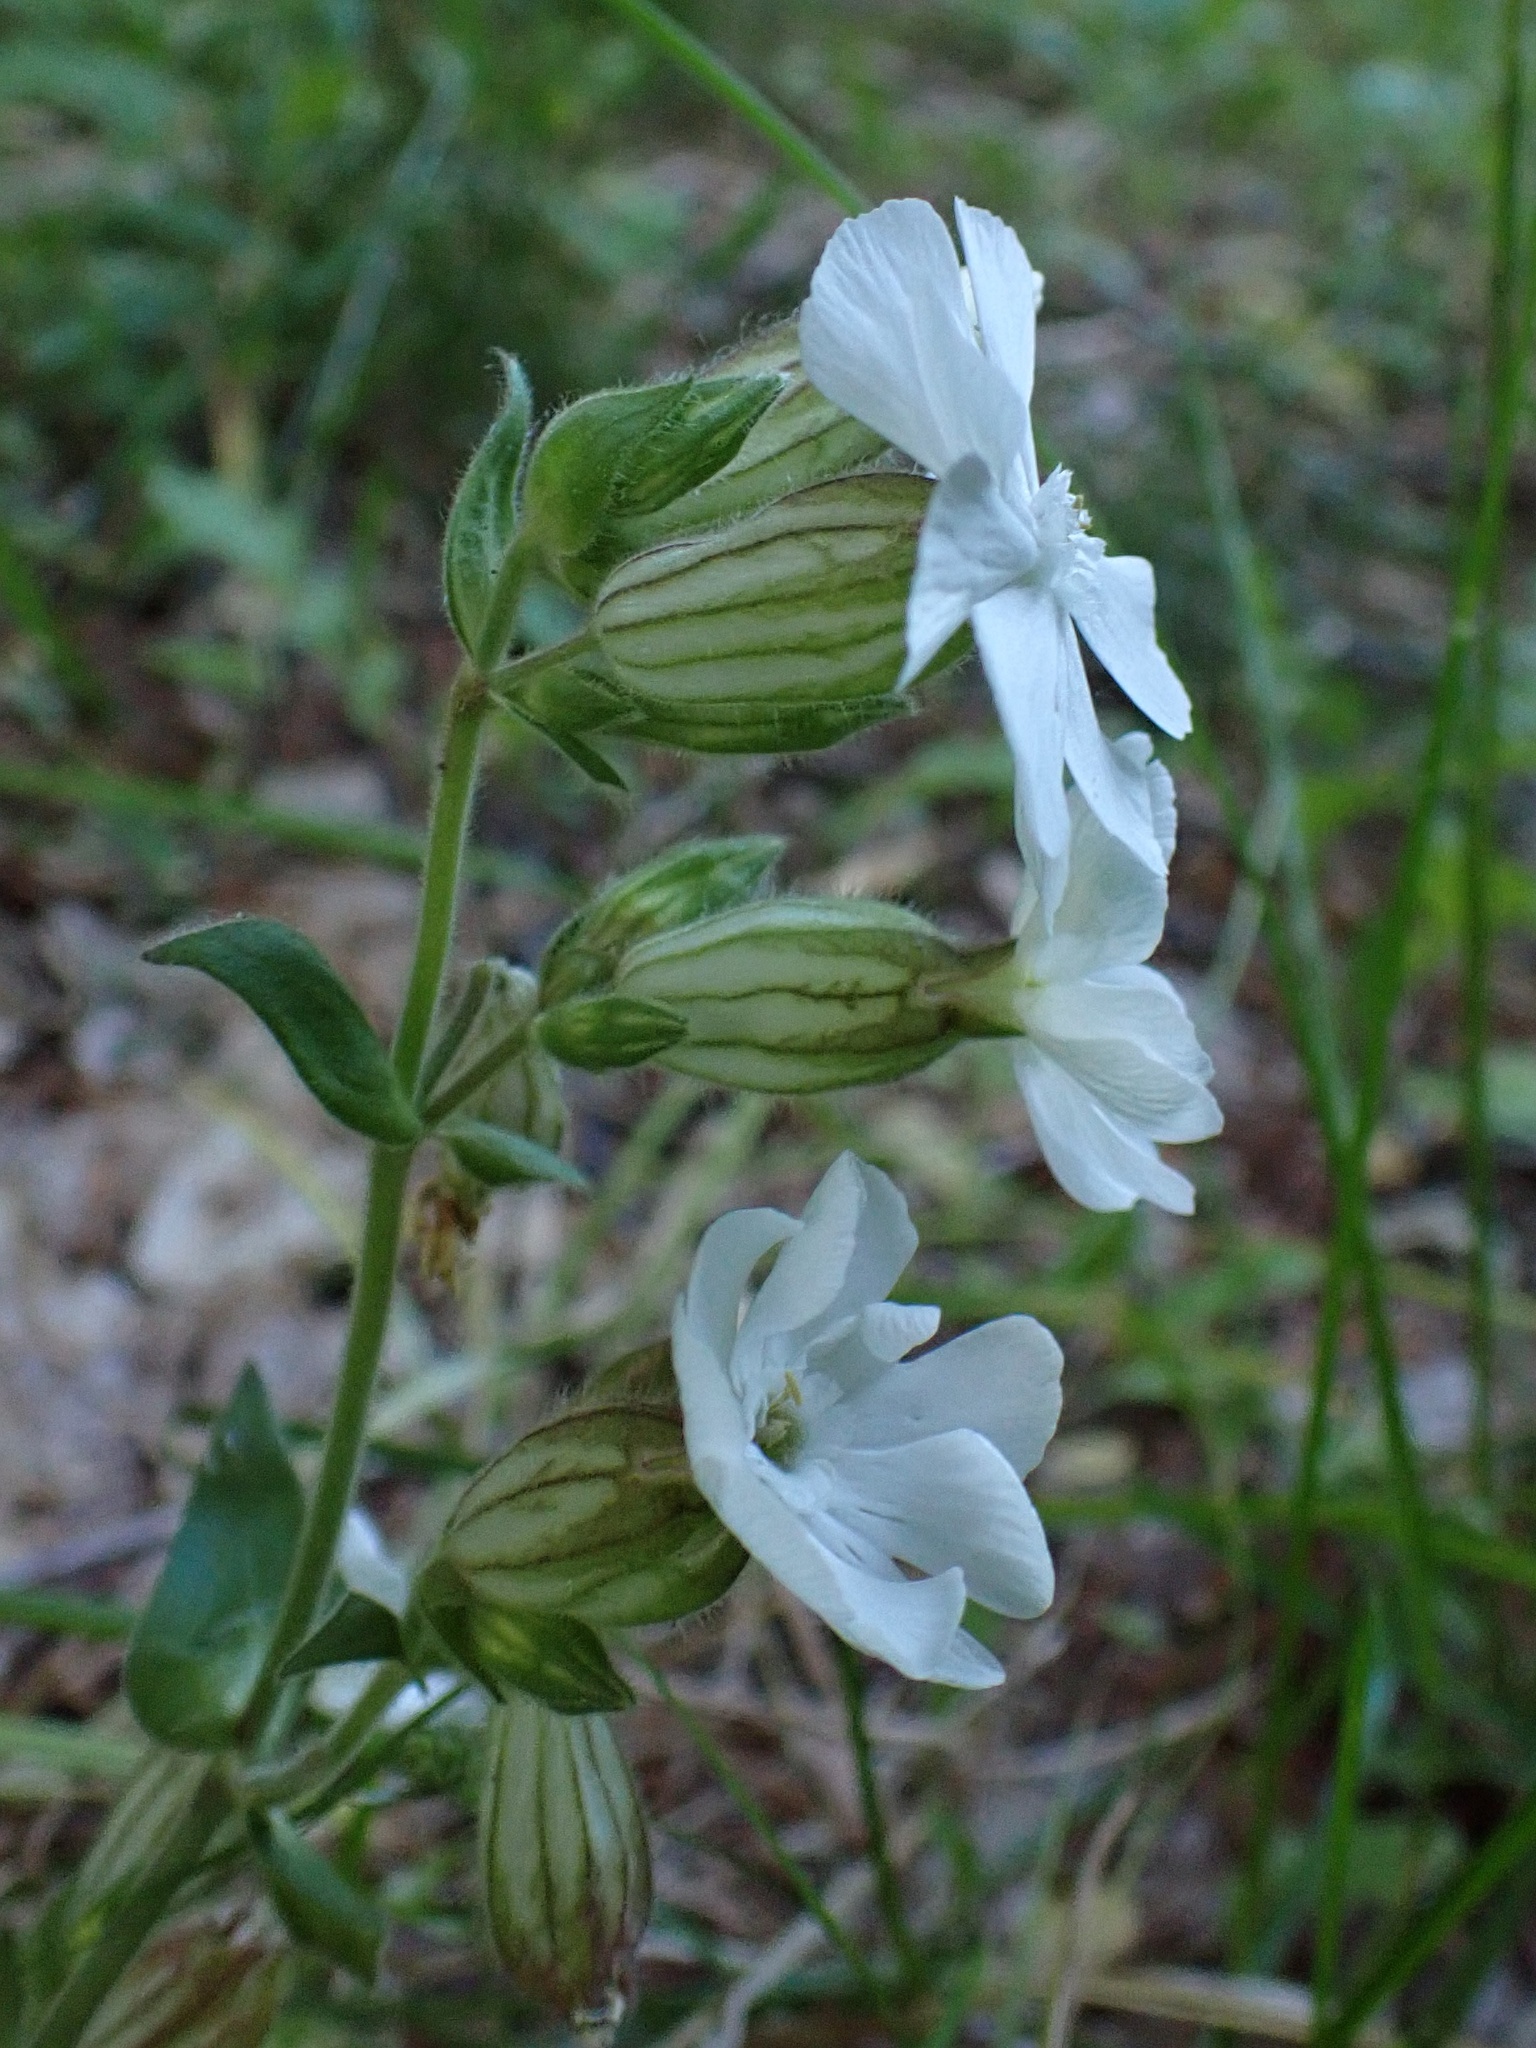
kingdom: Plantae
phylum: Tracheophyta
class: Magnoliopsida
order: Caryophyllales
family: Caryophyllaceae
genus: Silene
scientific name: Silene latifolia
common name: White campion
